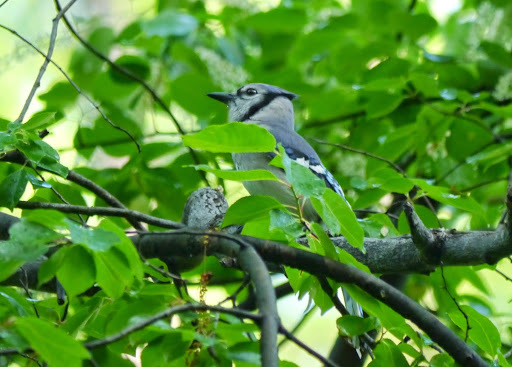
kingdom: Animalia
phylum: Chordata
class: Aves
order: Passeriformes
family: Corvidae
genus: Cyanocitta
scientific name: Cyanocitta cristata
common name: Blue jay
